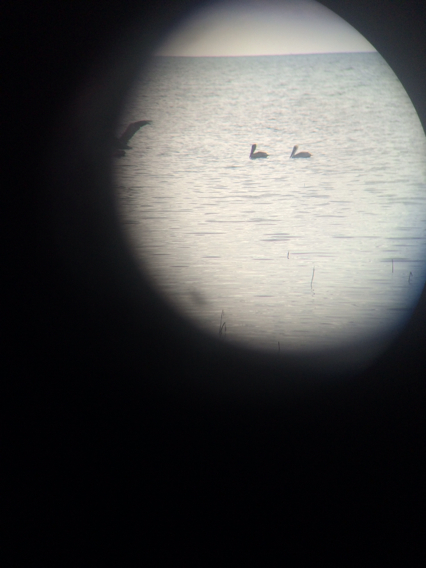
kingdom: Animalia
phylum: Chordata
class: Aves
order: Pelecaniformes
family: Pelecanidae
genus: Pelecanus
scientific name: Pelecanus occidentalis
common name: Brown pelican
